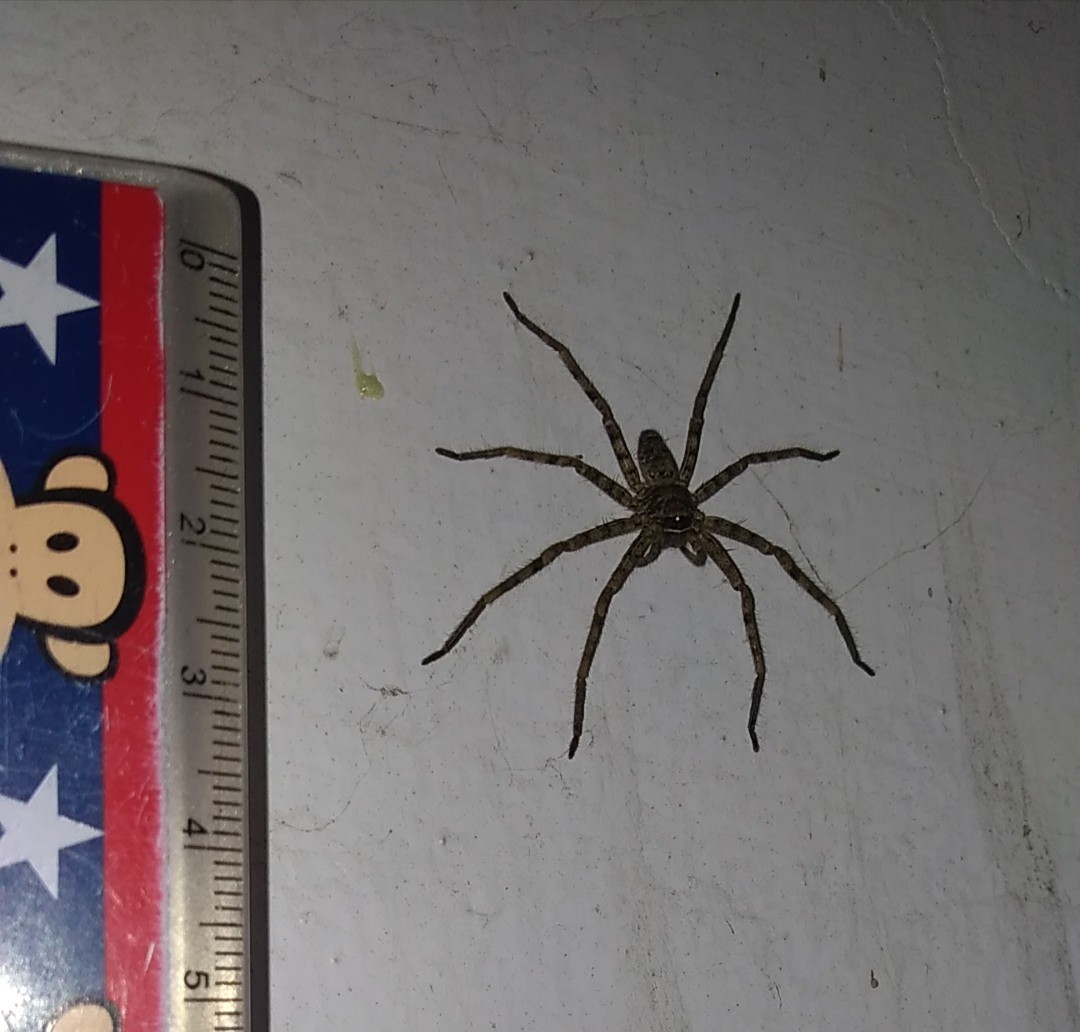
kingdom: Animalia
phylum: Arthropoda
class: Arachnida
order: Araneae
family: Sparassidae
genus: Heteropoda
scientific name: Heteropoda venatoria
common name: Huntsman spider
